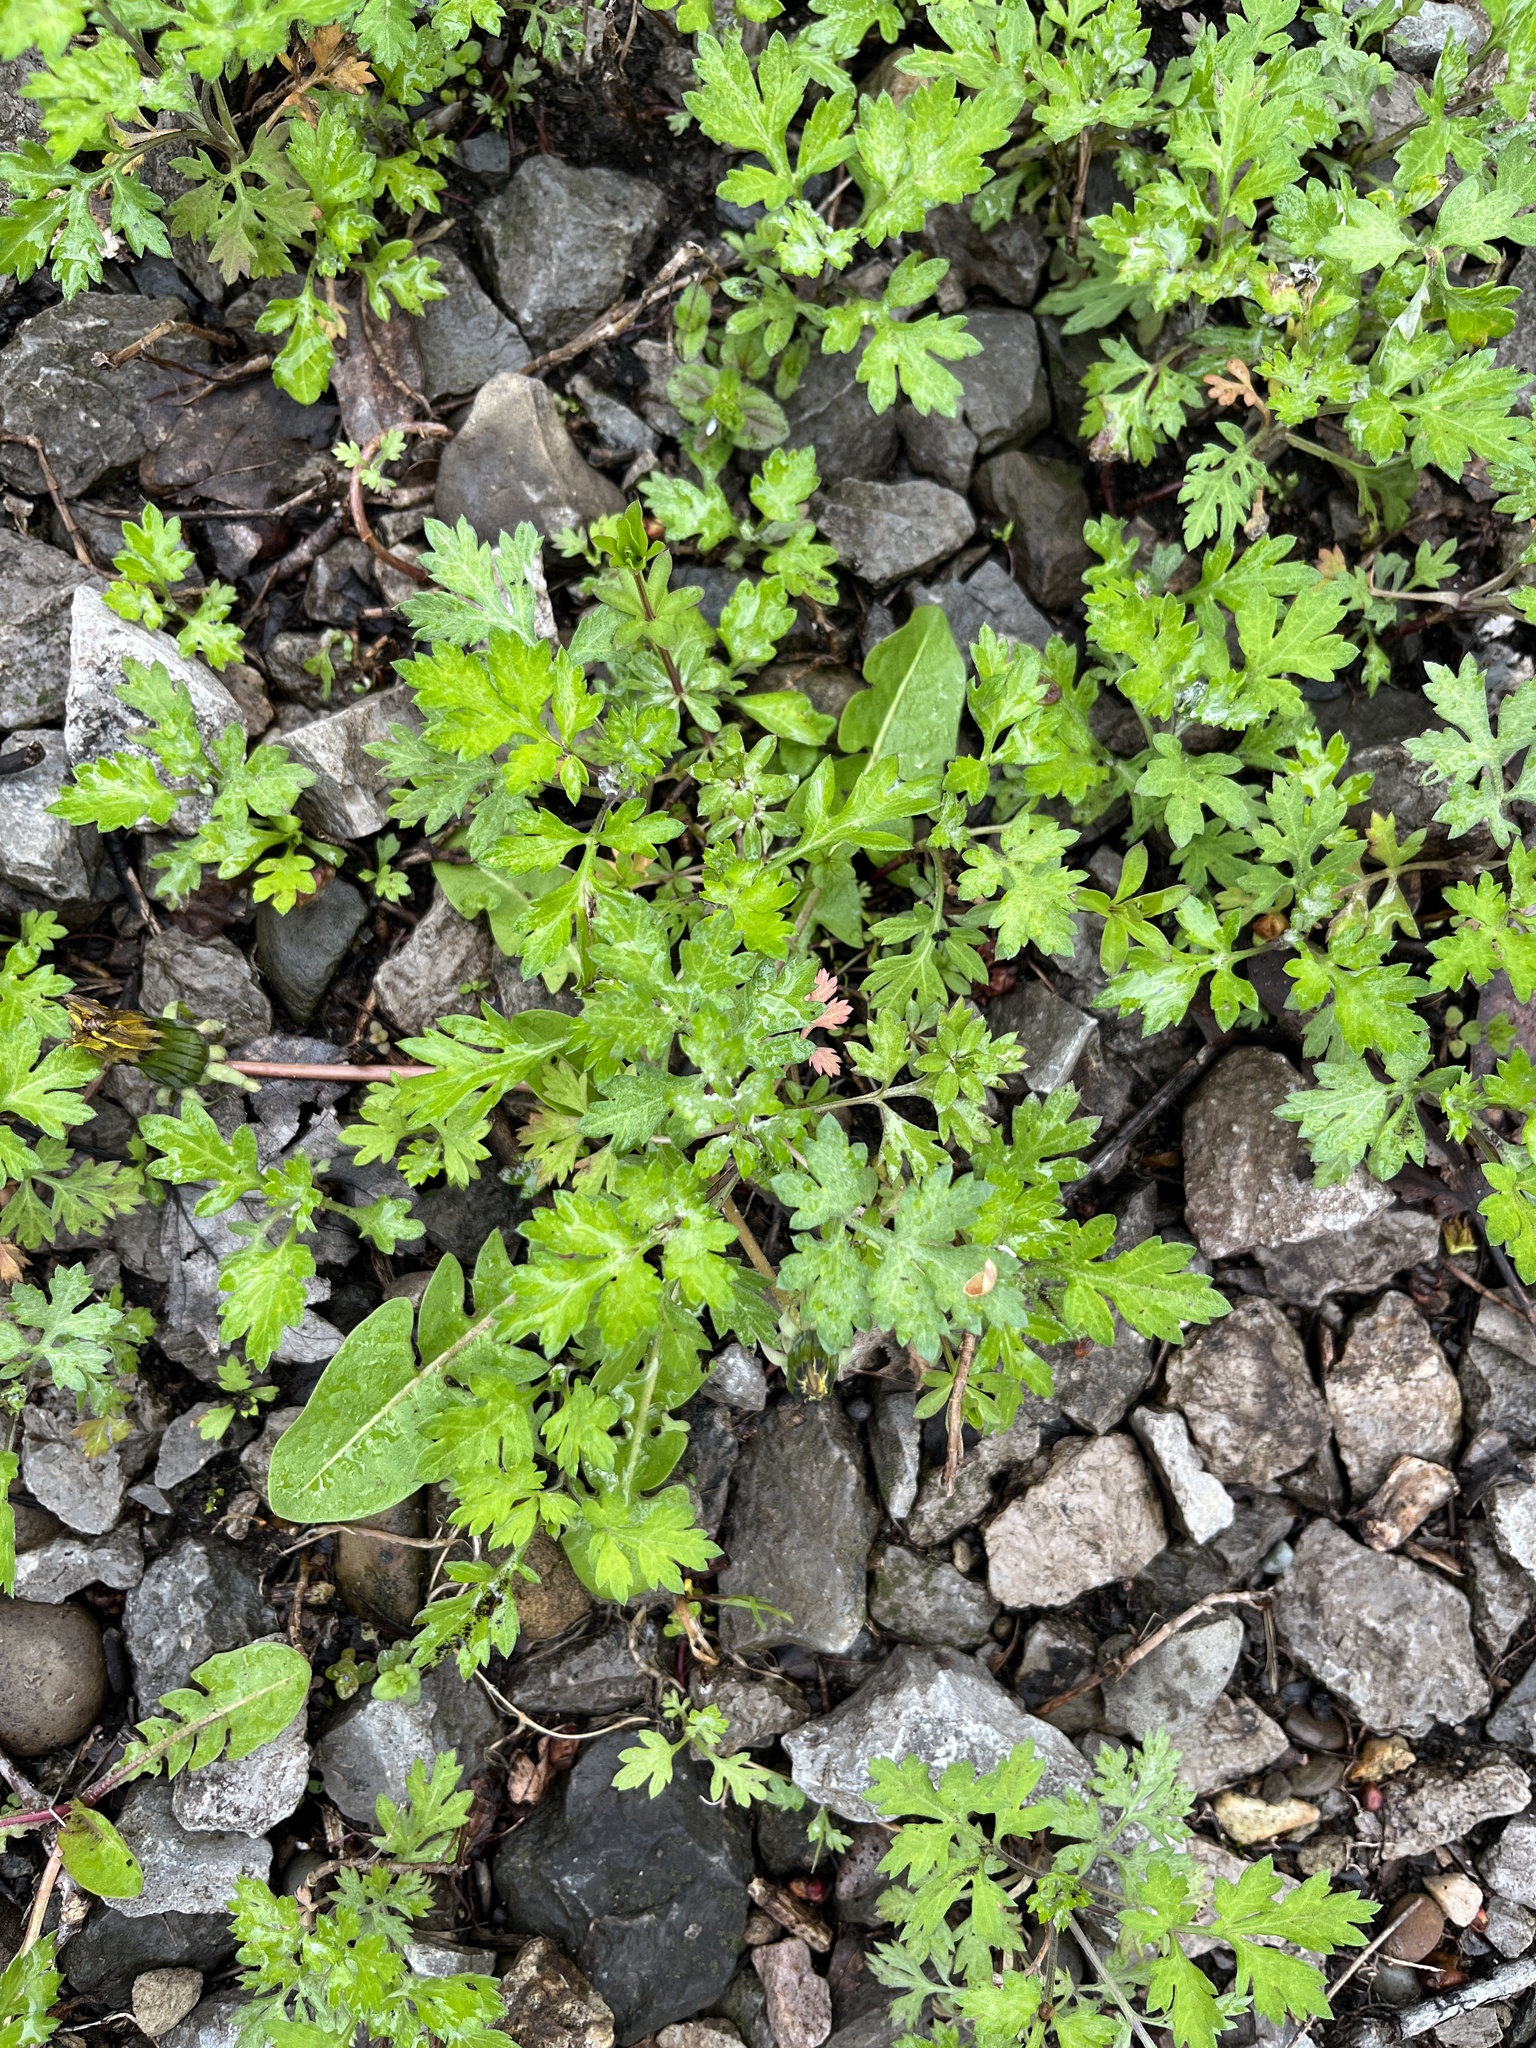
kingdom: Plantae
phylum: Tracheophyta
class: Magnoliopsida
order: Asterales
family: Asteraceae
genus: Artemisia
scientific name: Artemisia vulgaris
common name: Mugwort
